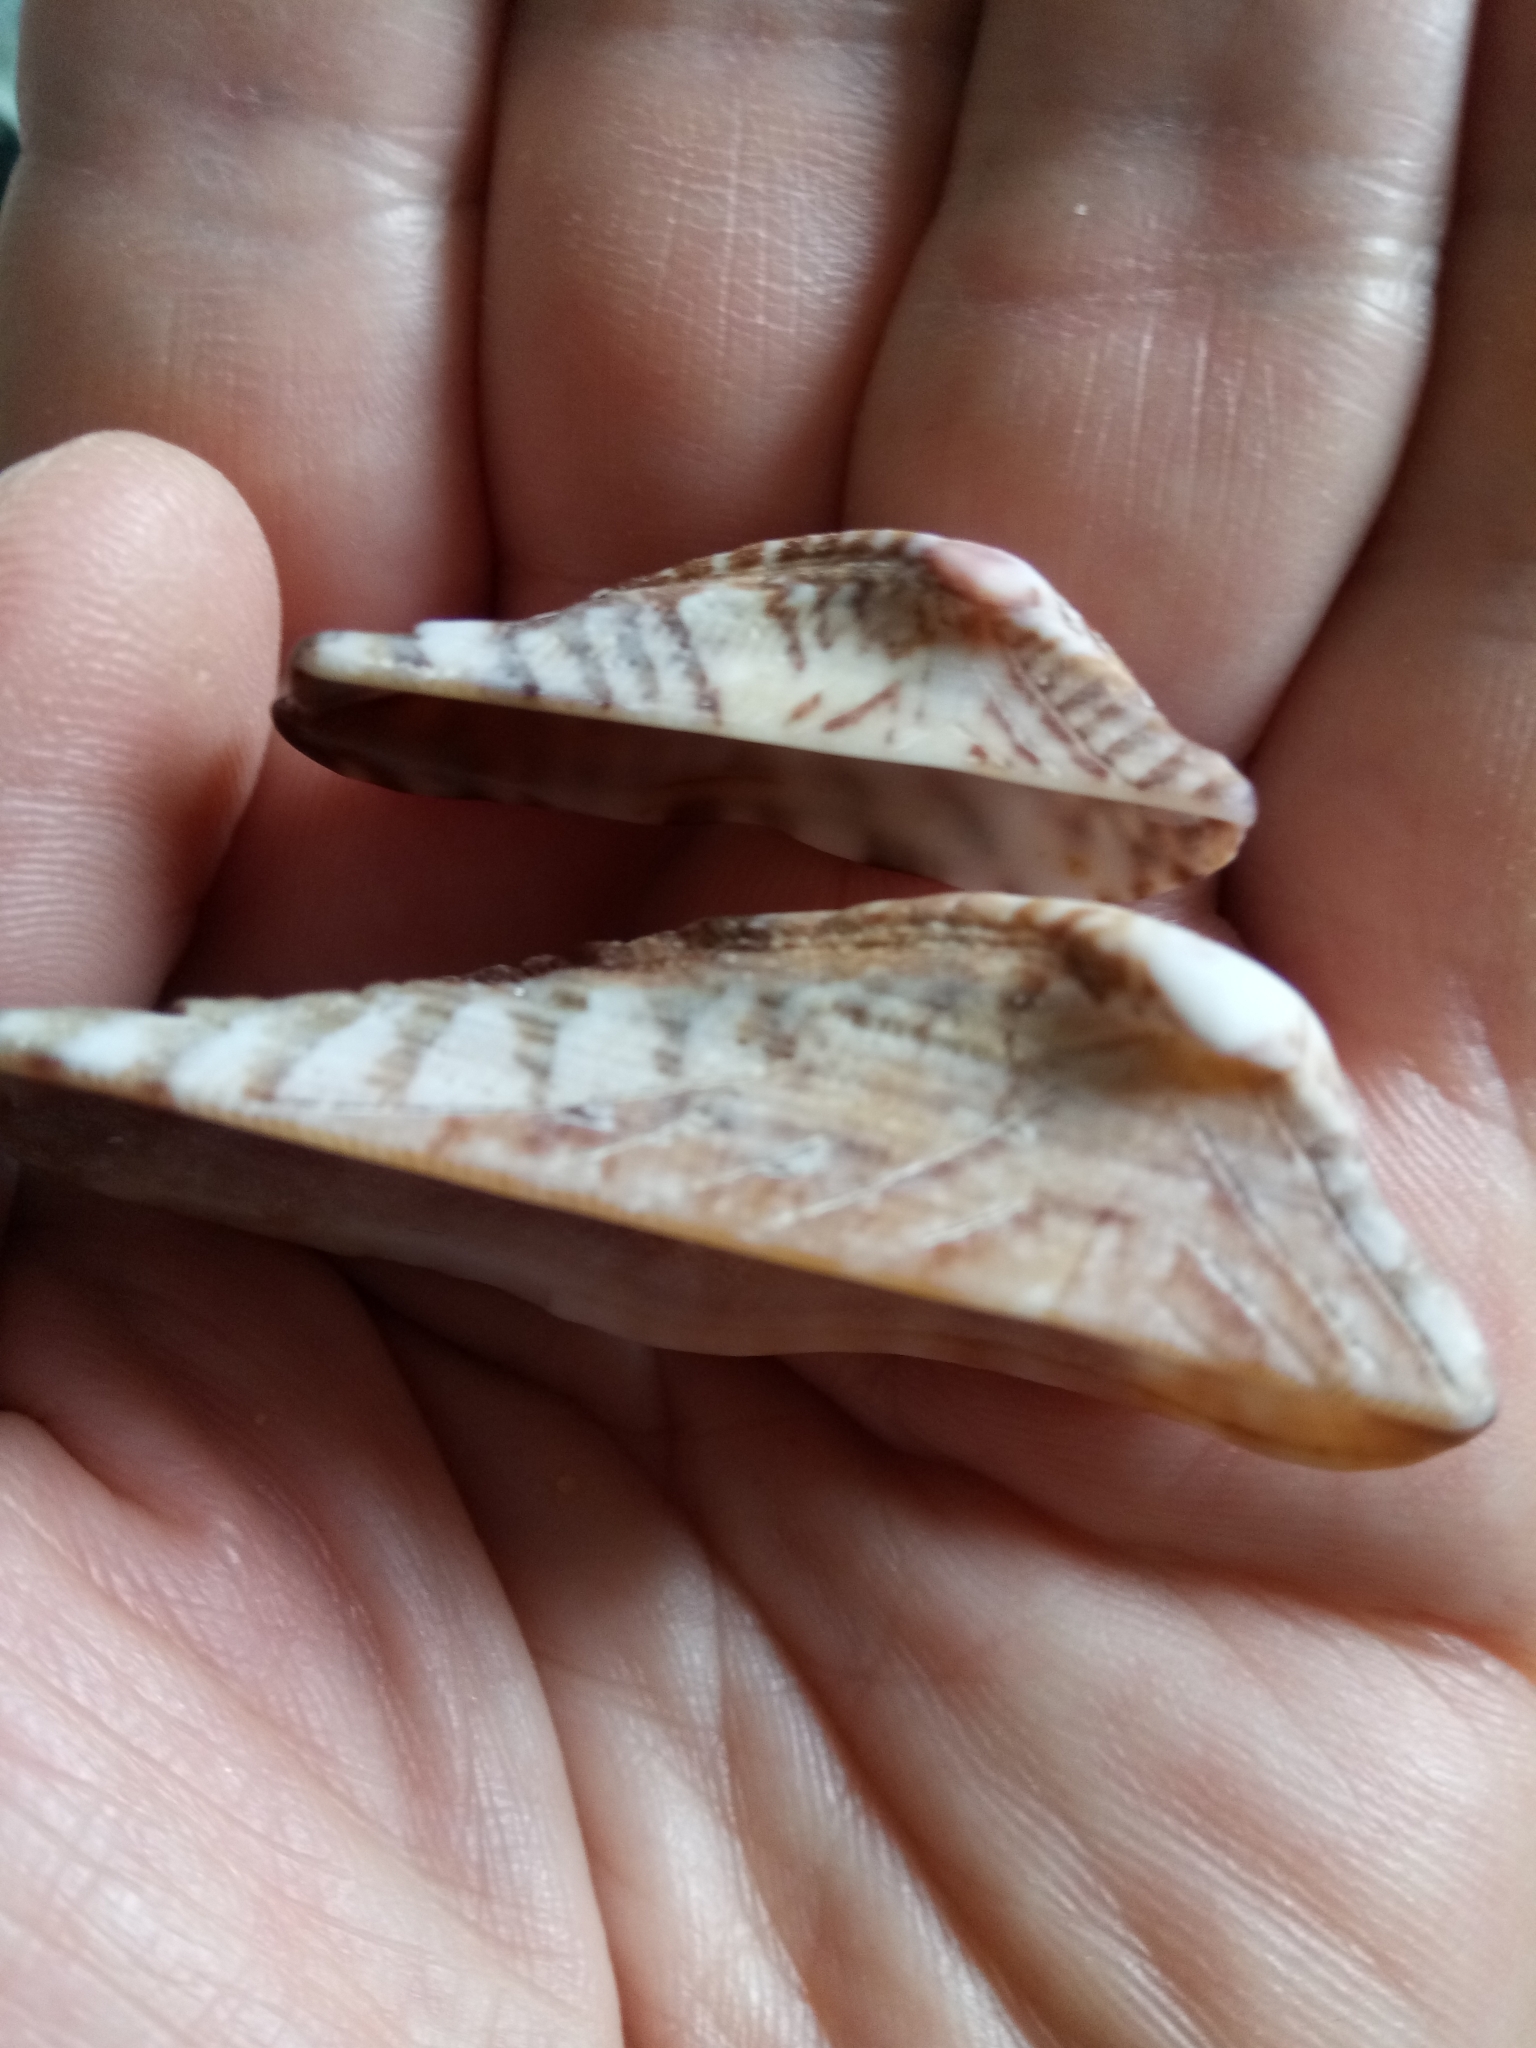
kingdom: Animalia
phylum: Mollusca
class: Bivalvia
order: Arcida
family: Arcidae
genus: Arca
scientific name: Arca noae
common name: Noah's arch
